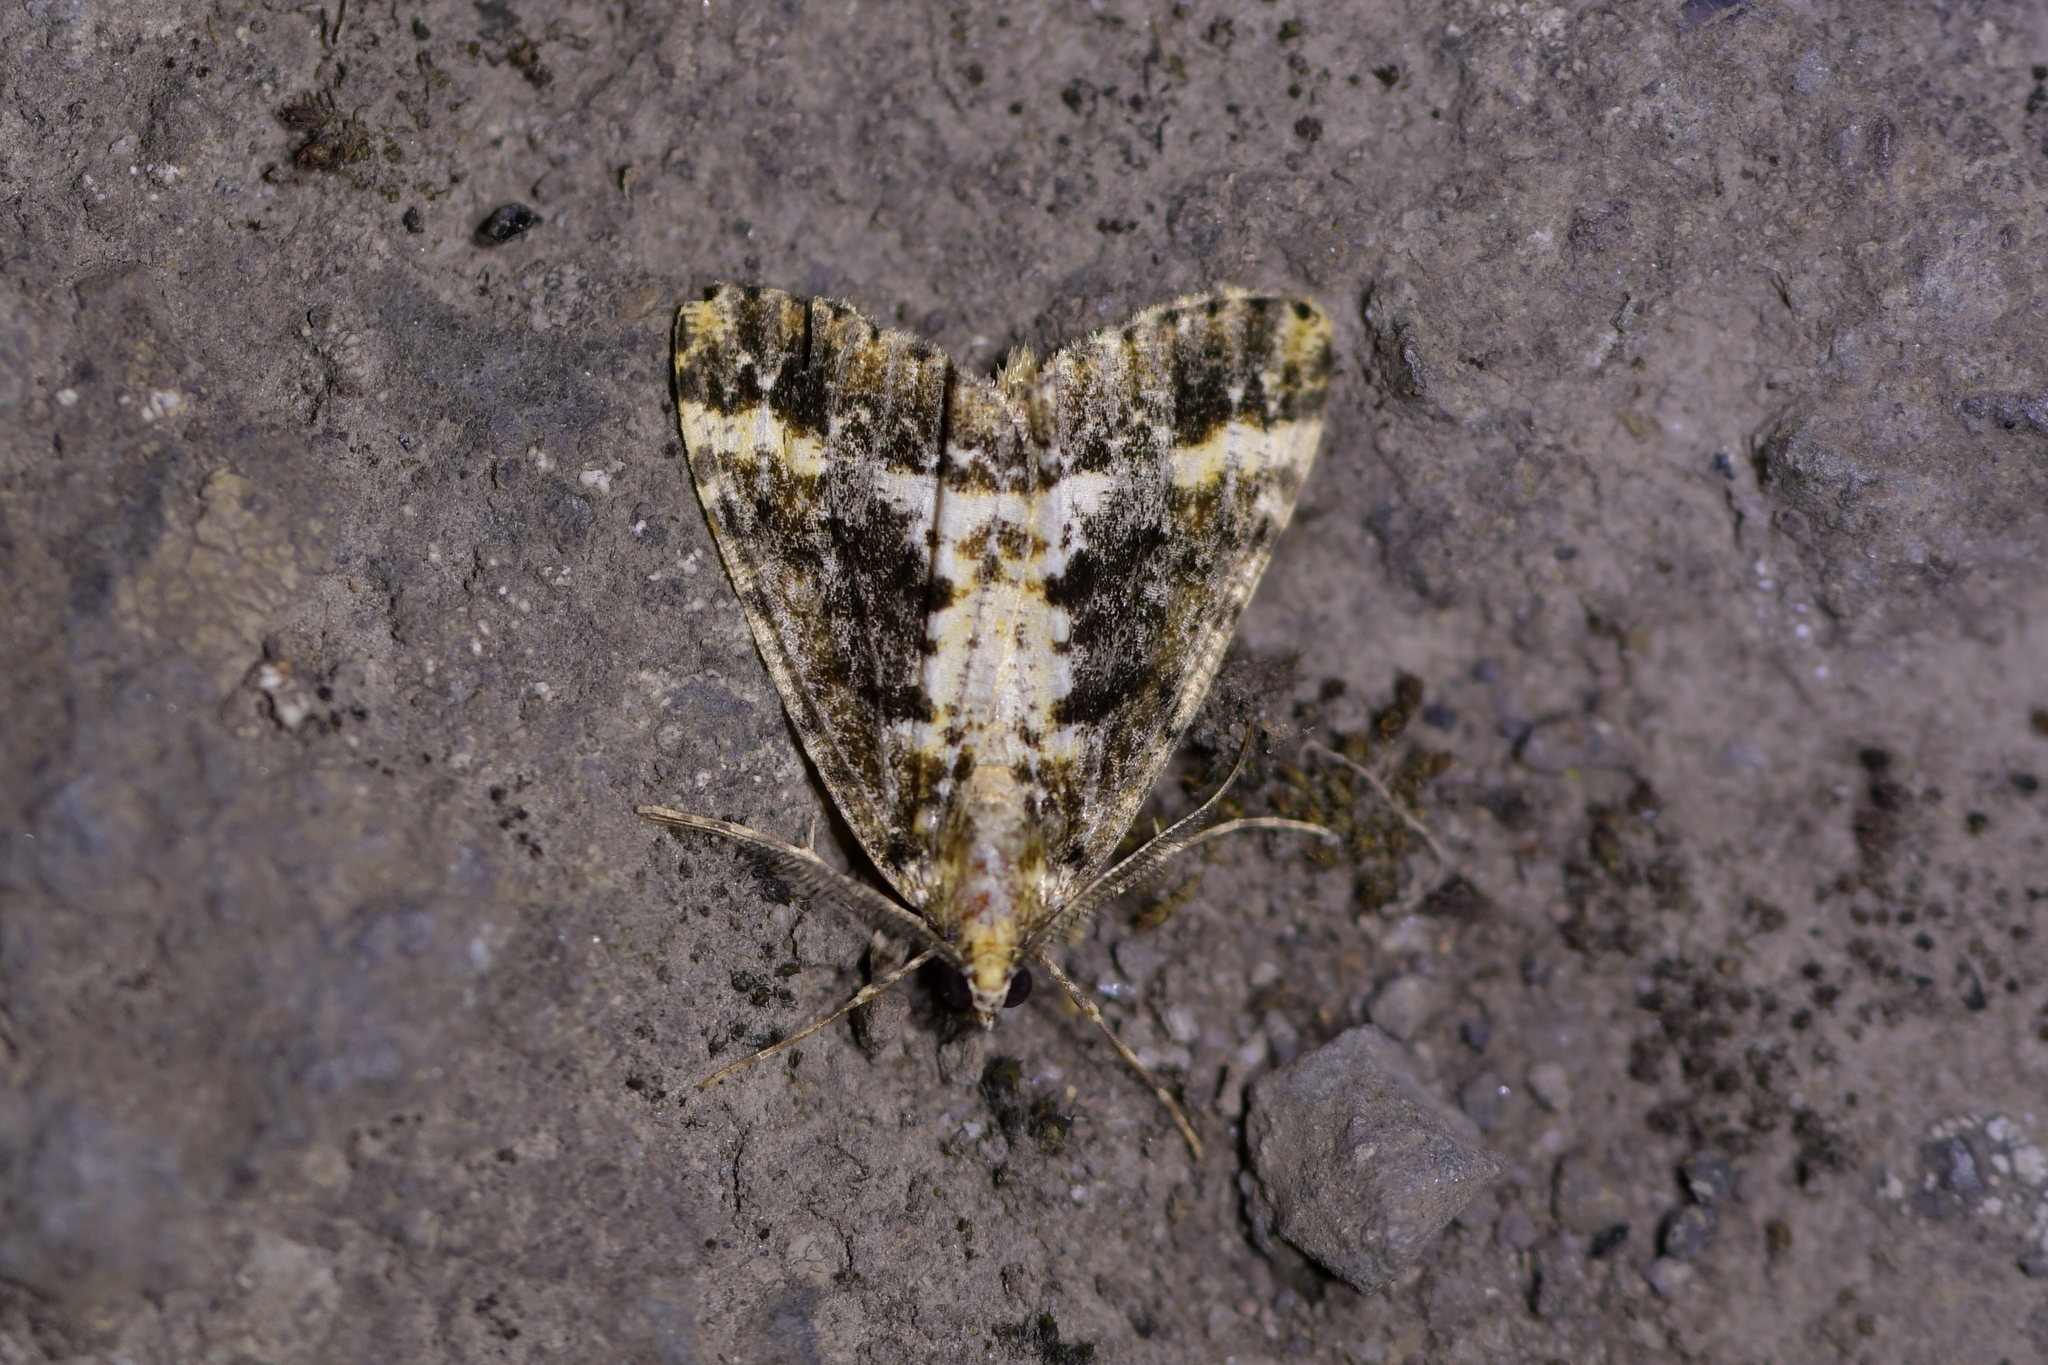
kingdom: Animalia
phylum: Arthropoda
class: Insecta
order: Lepidoptera
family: Geometridae
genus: Pseudocoremia
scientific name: Pseudocoremia leucelaea
